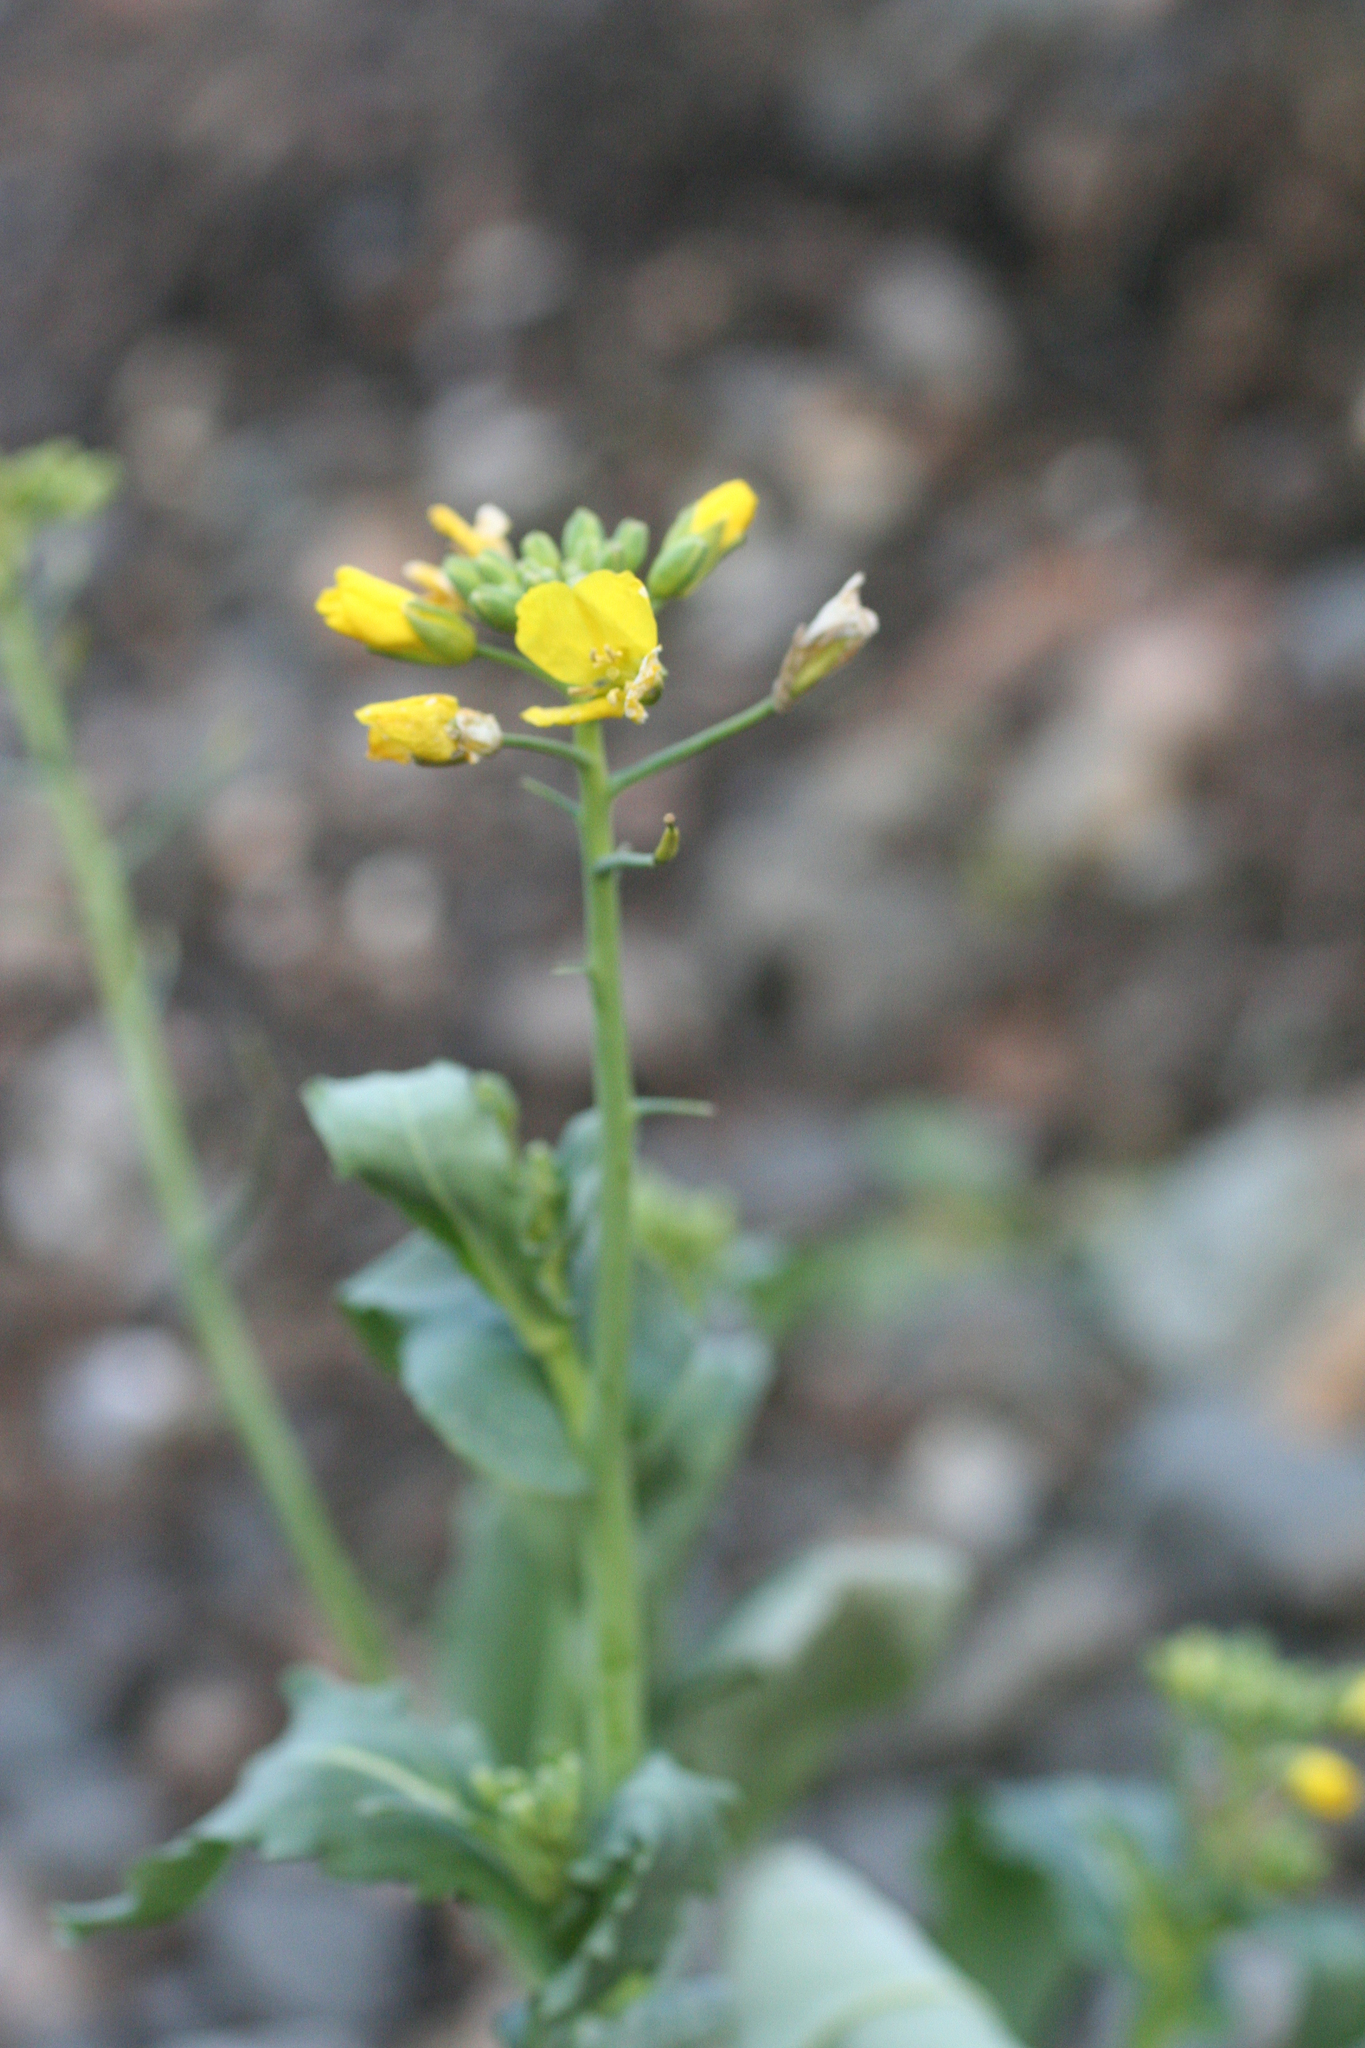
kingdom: Plantae
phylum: Tracheophyta
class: Magnoliopsida
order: Brassicales
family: Brassicaceae
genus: Brassica
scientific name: Brassica napus
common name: Rape
